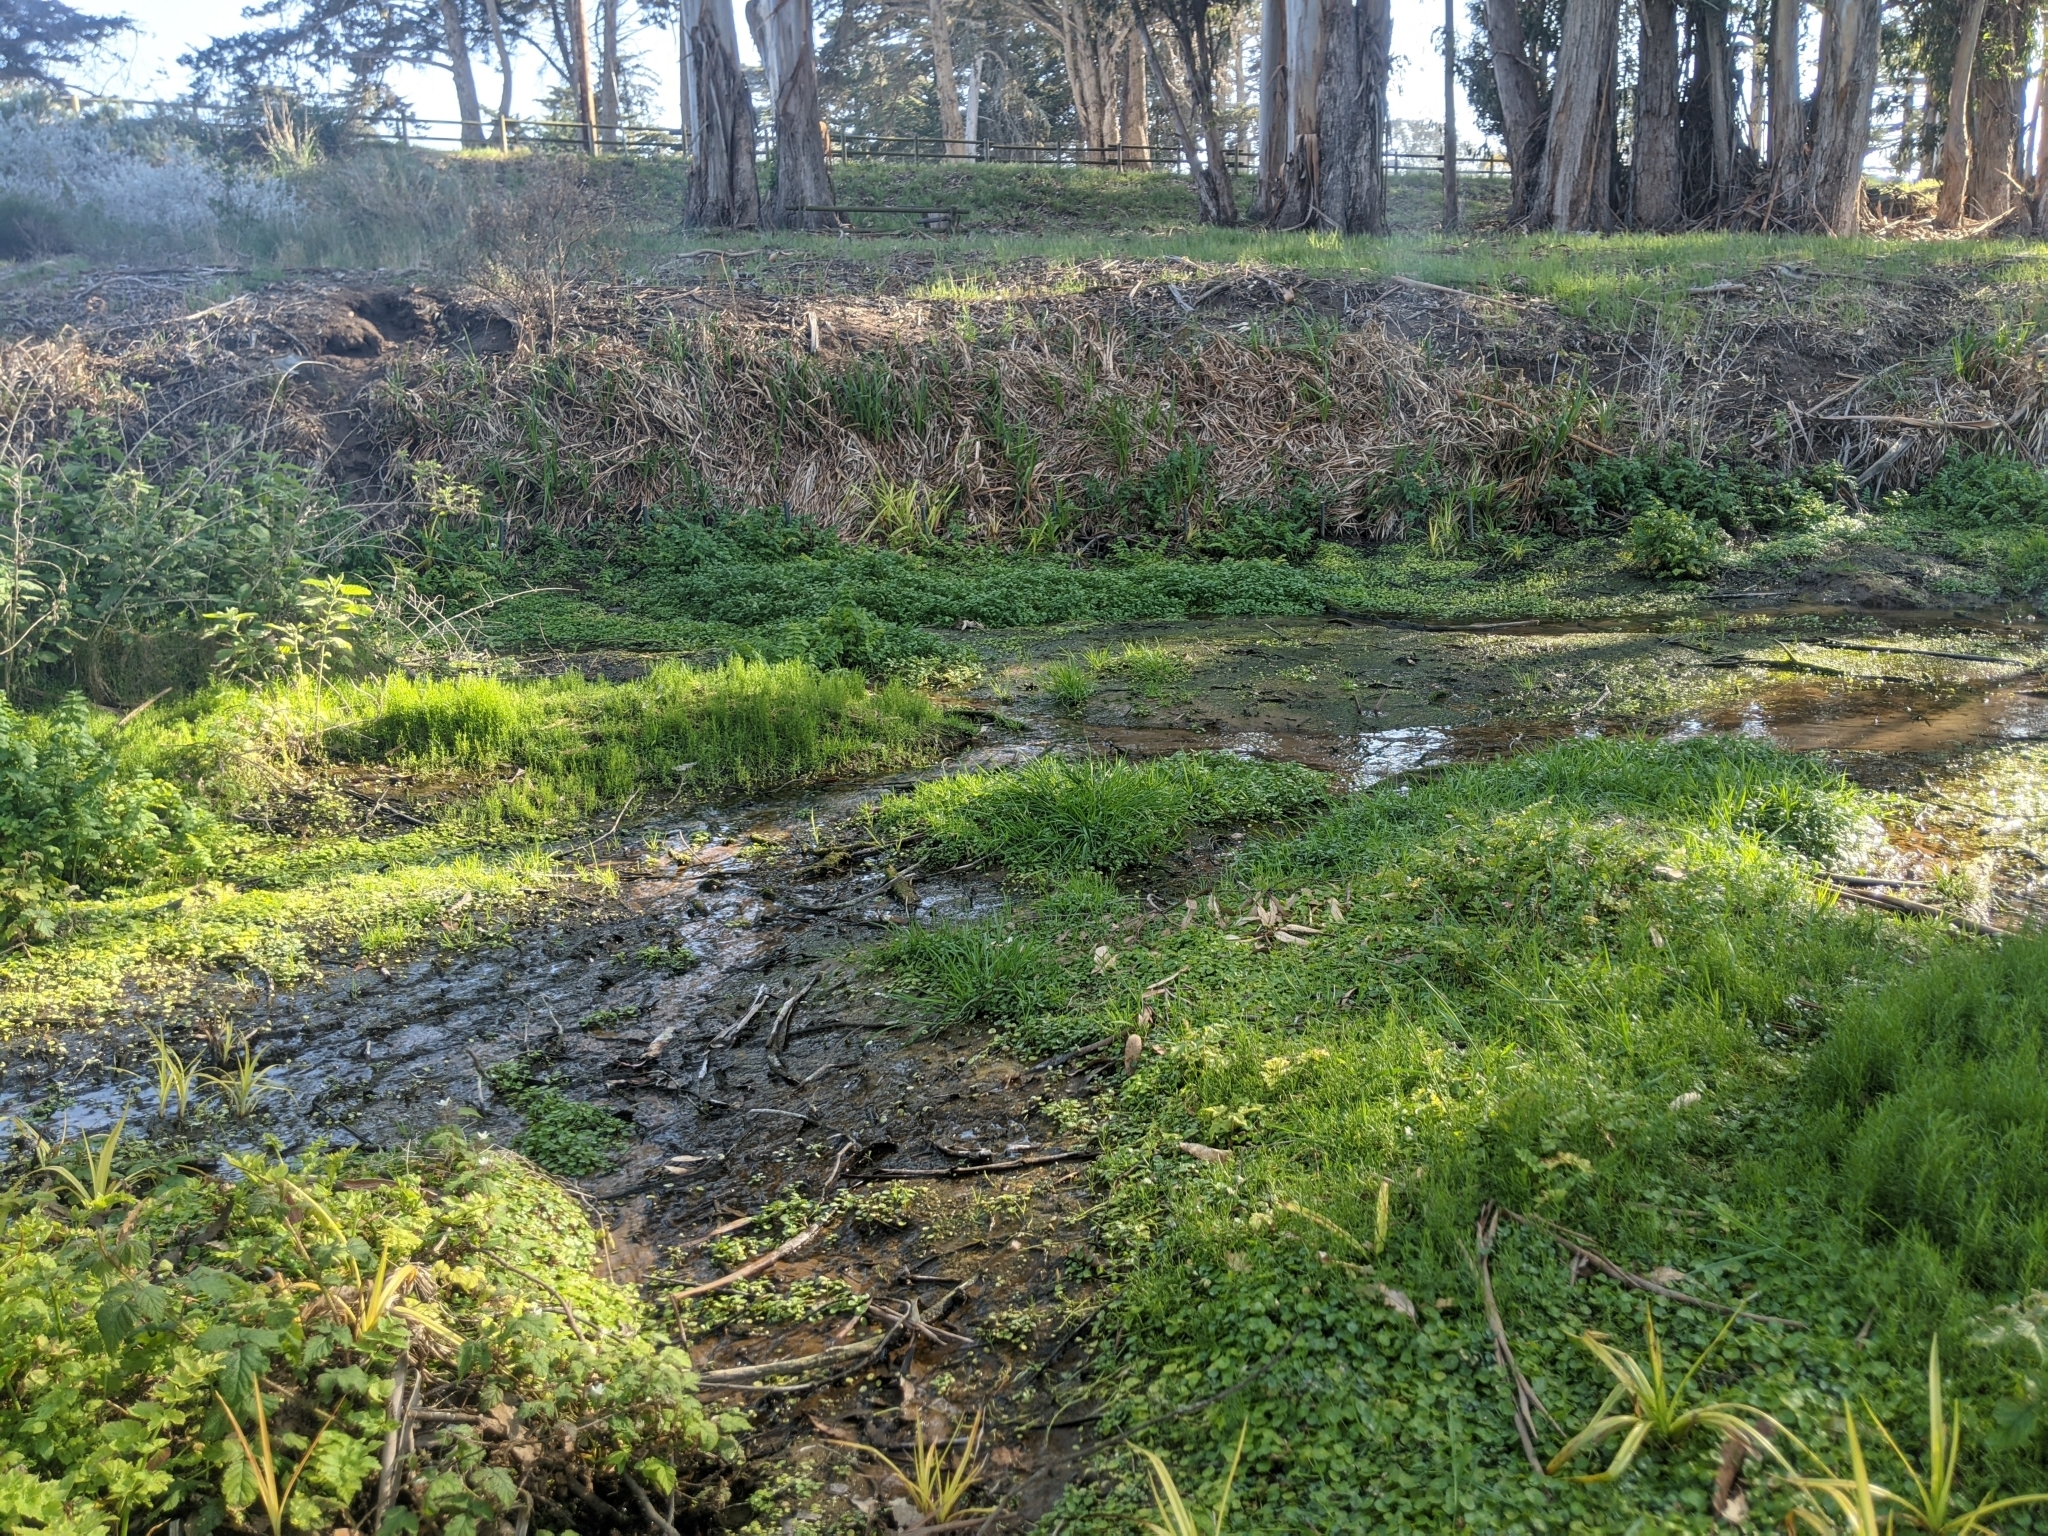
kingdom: Plantae
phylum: Tracheophyta
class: Magnoliopsida
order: Caryophyllales
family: Caryophyllaceae
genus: Arenaria
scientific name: Arenaria paludicola
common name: Marsh sandwort
